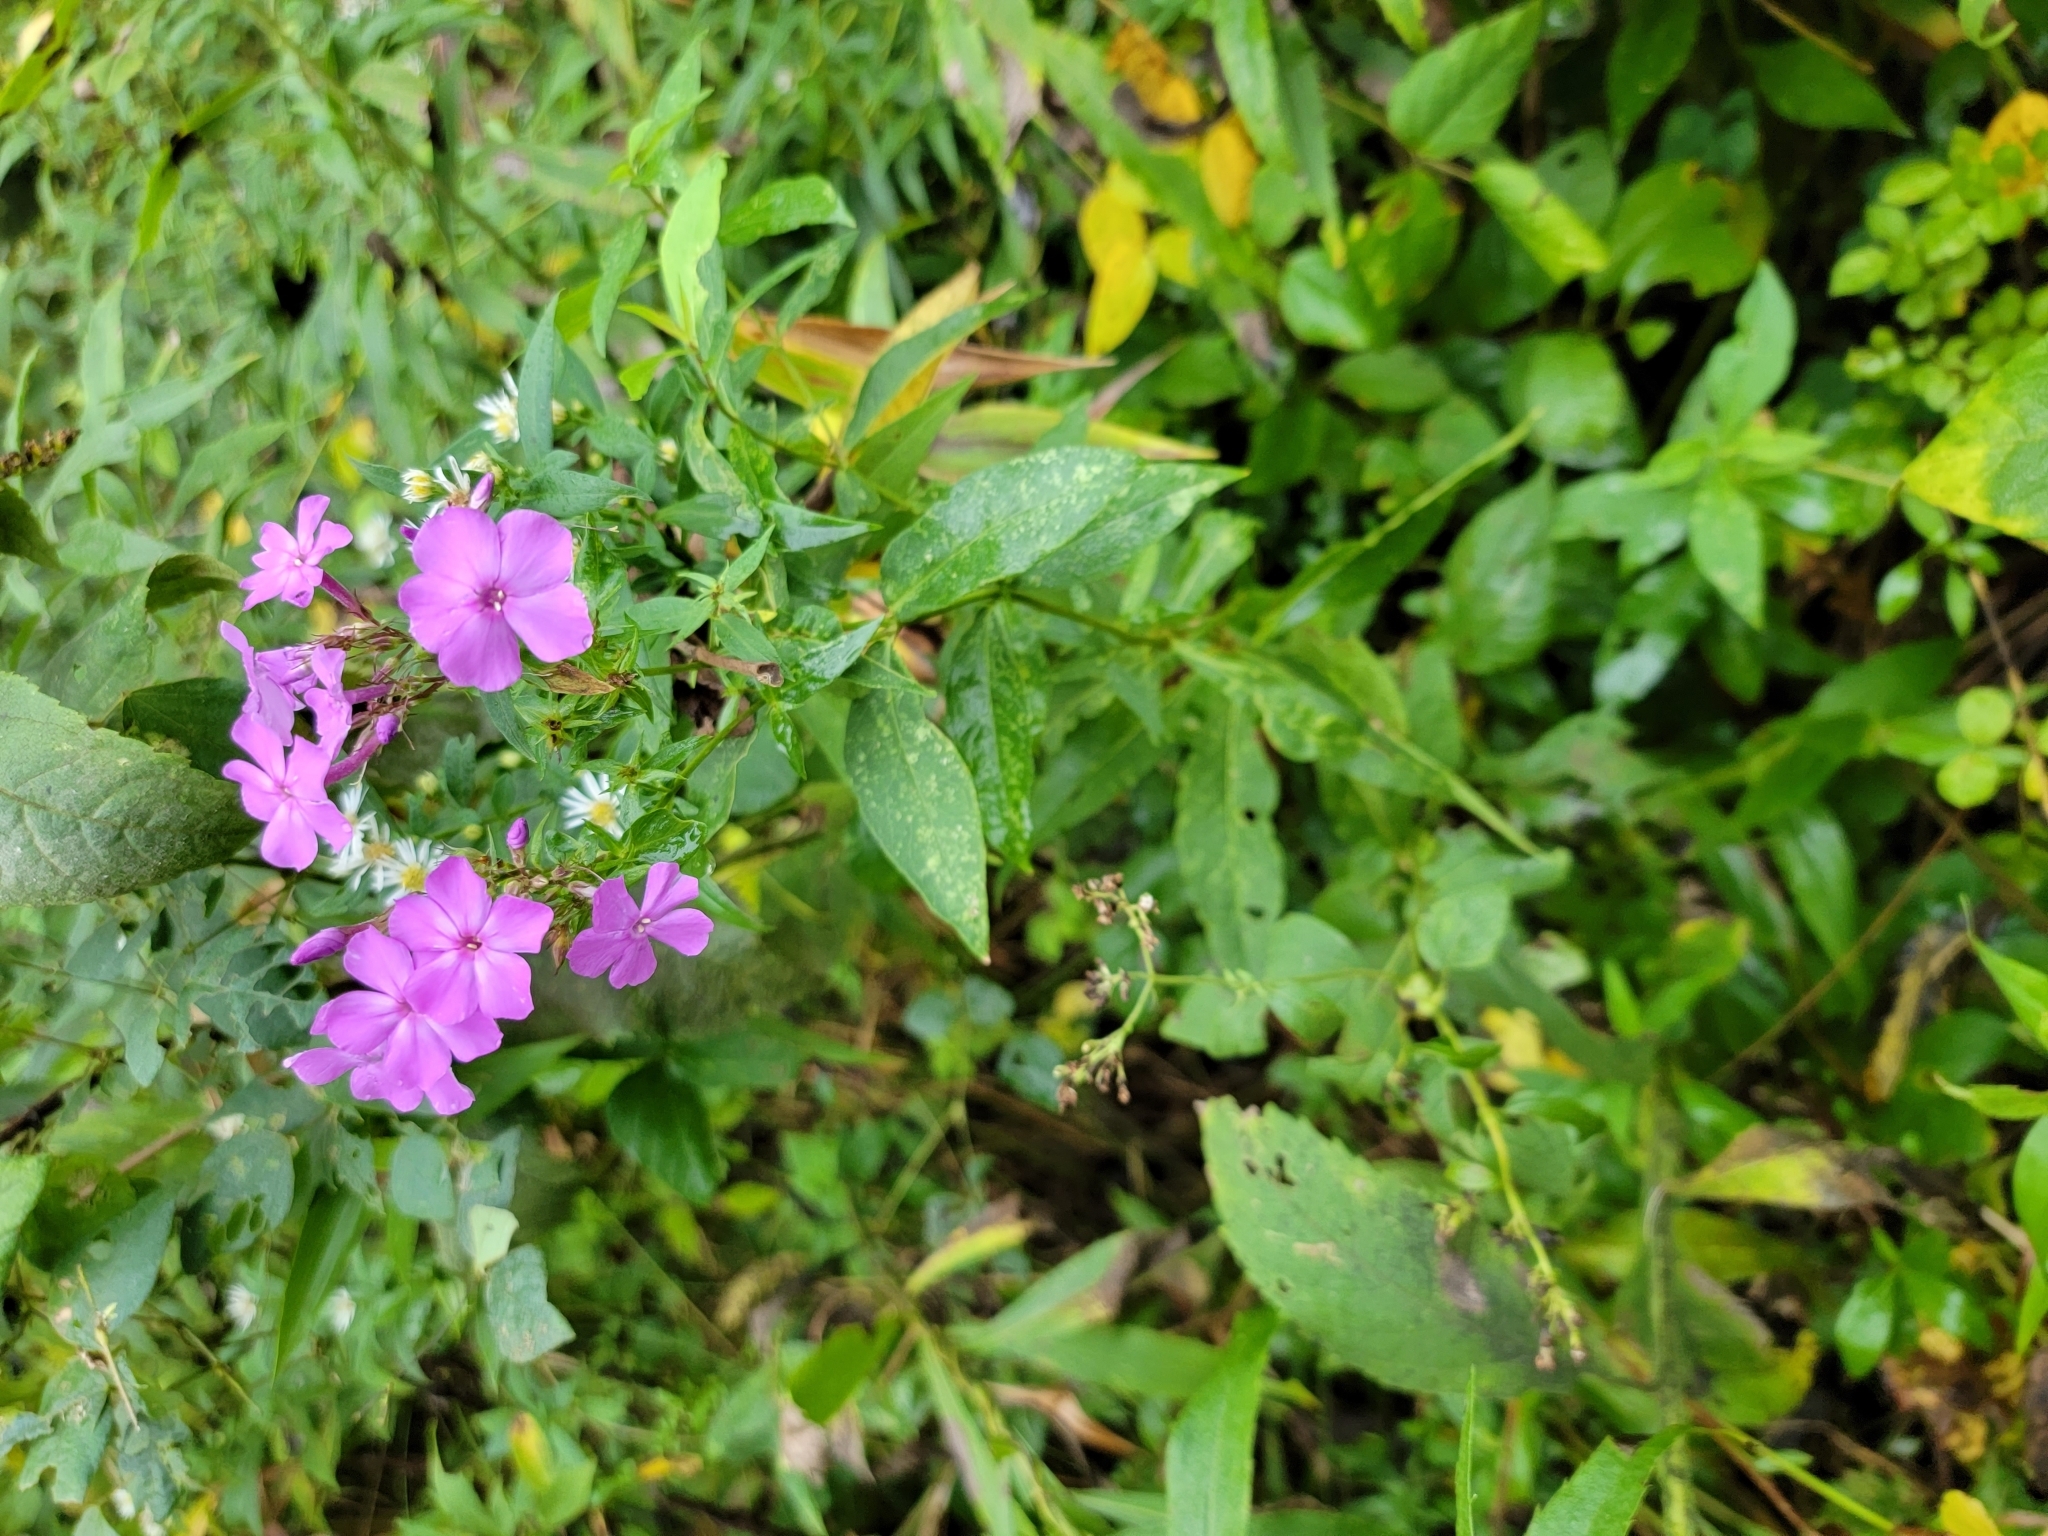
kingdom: Plantae
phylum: Tracheophyta
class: Magnoliopsida
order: Ericales
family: Polemoniaceae
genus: Phlox
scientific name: Phlox paniculata
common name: Fall phlox
